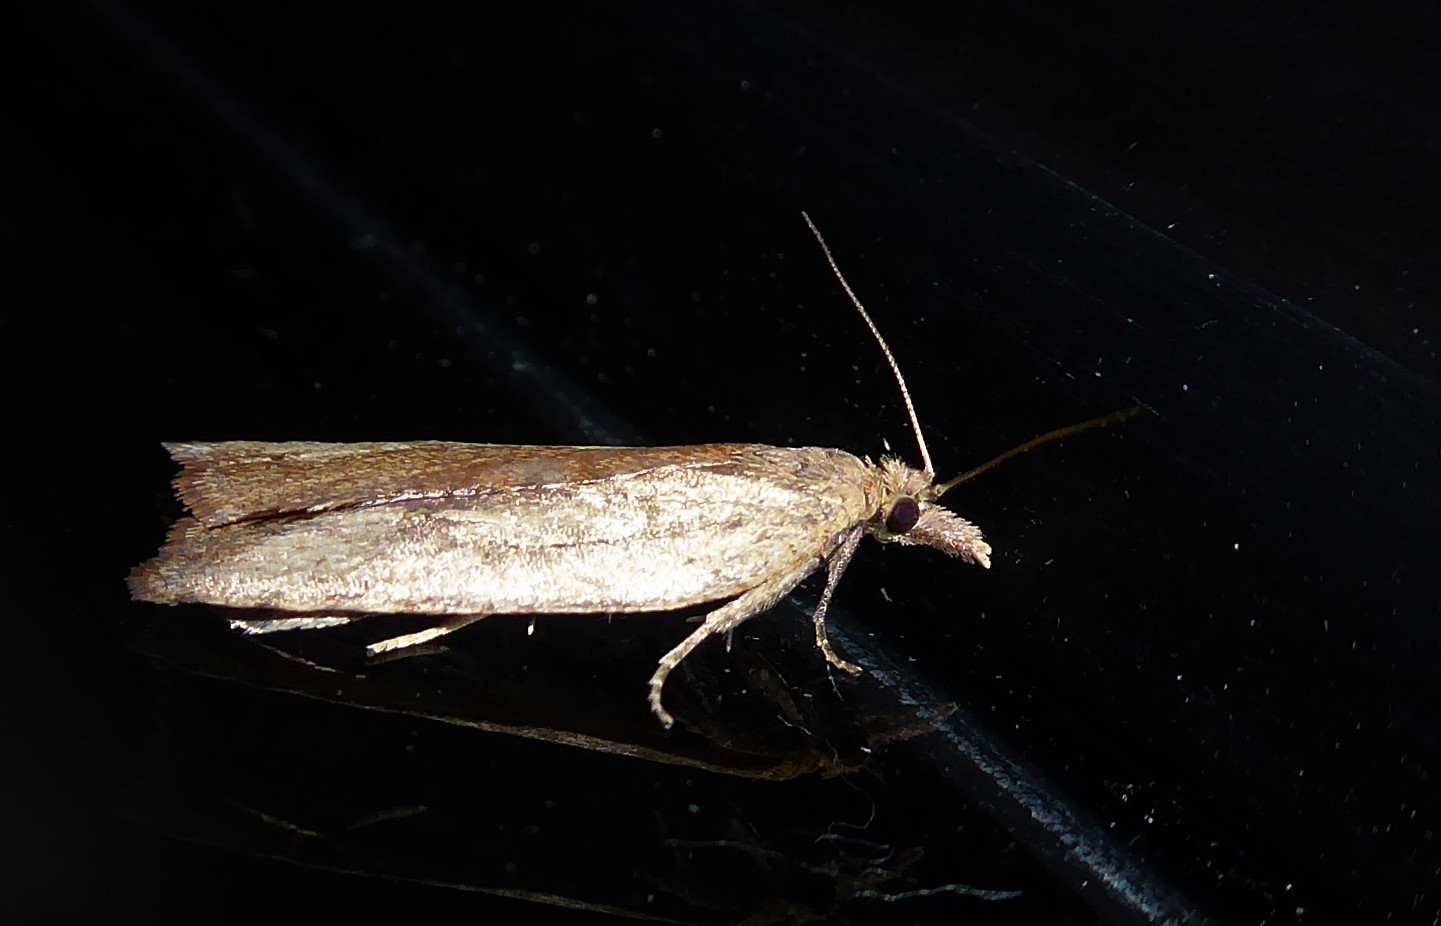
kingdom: Animalia
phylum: Arthropoda
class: Insecta
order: Lepidoptera
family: Tortricidae
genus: Planotortrix
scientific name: Planotortrix notophaea
